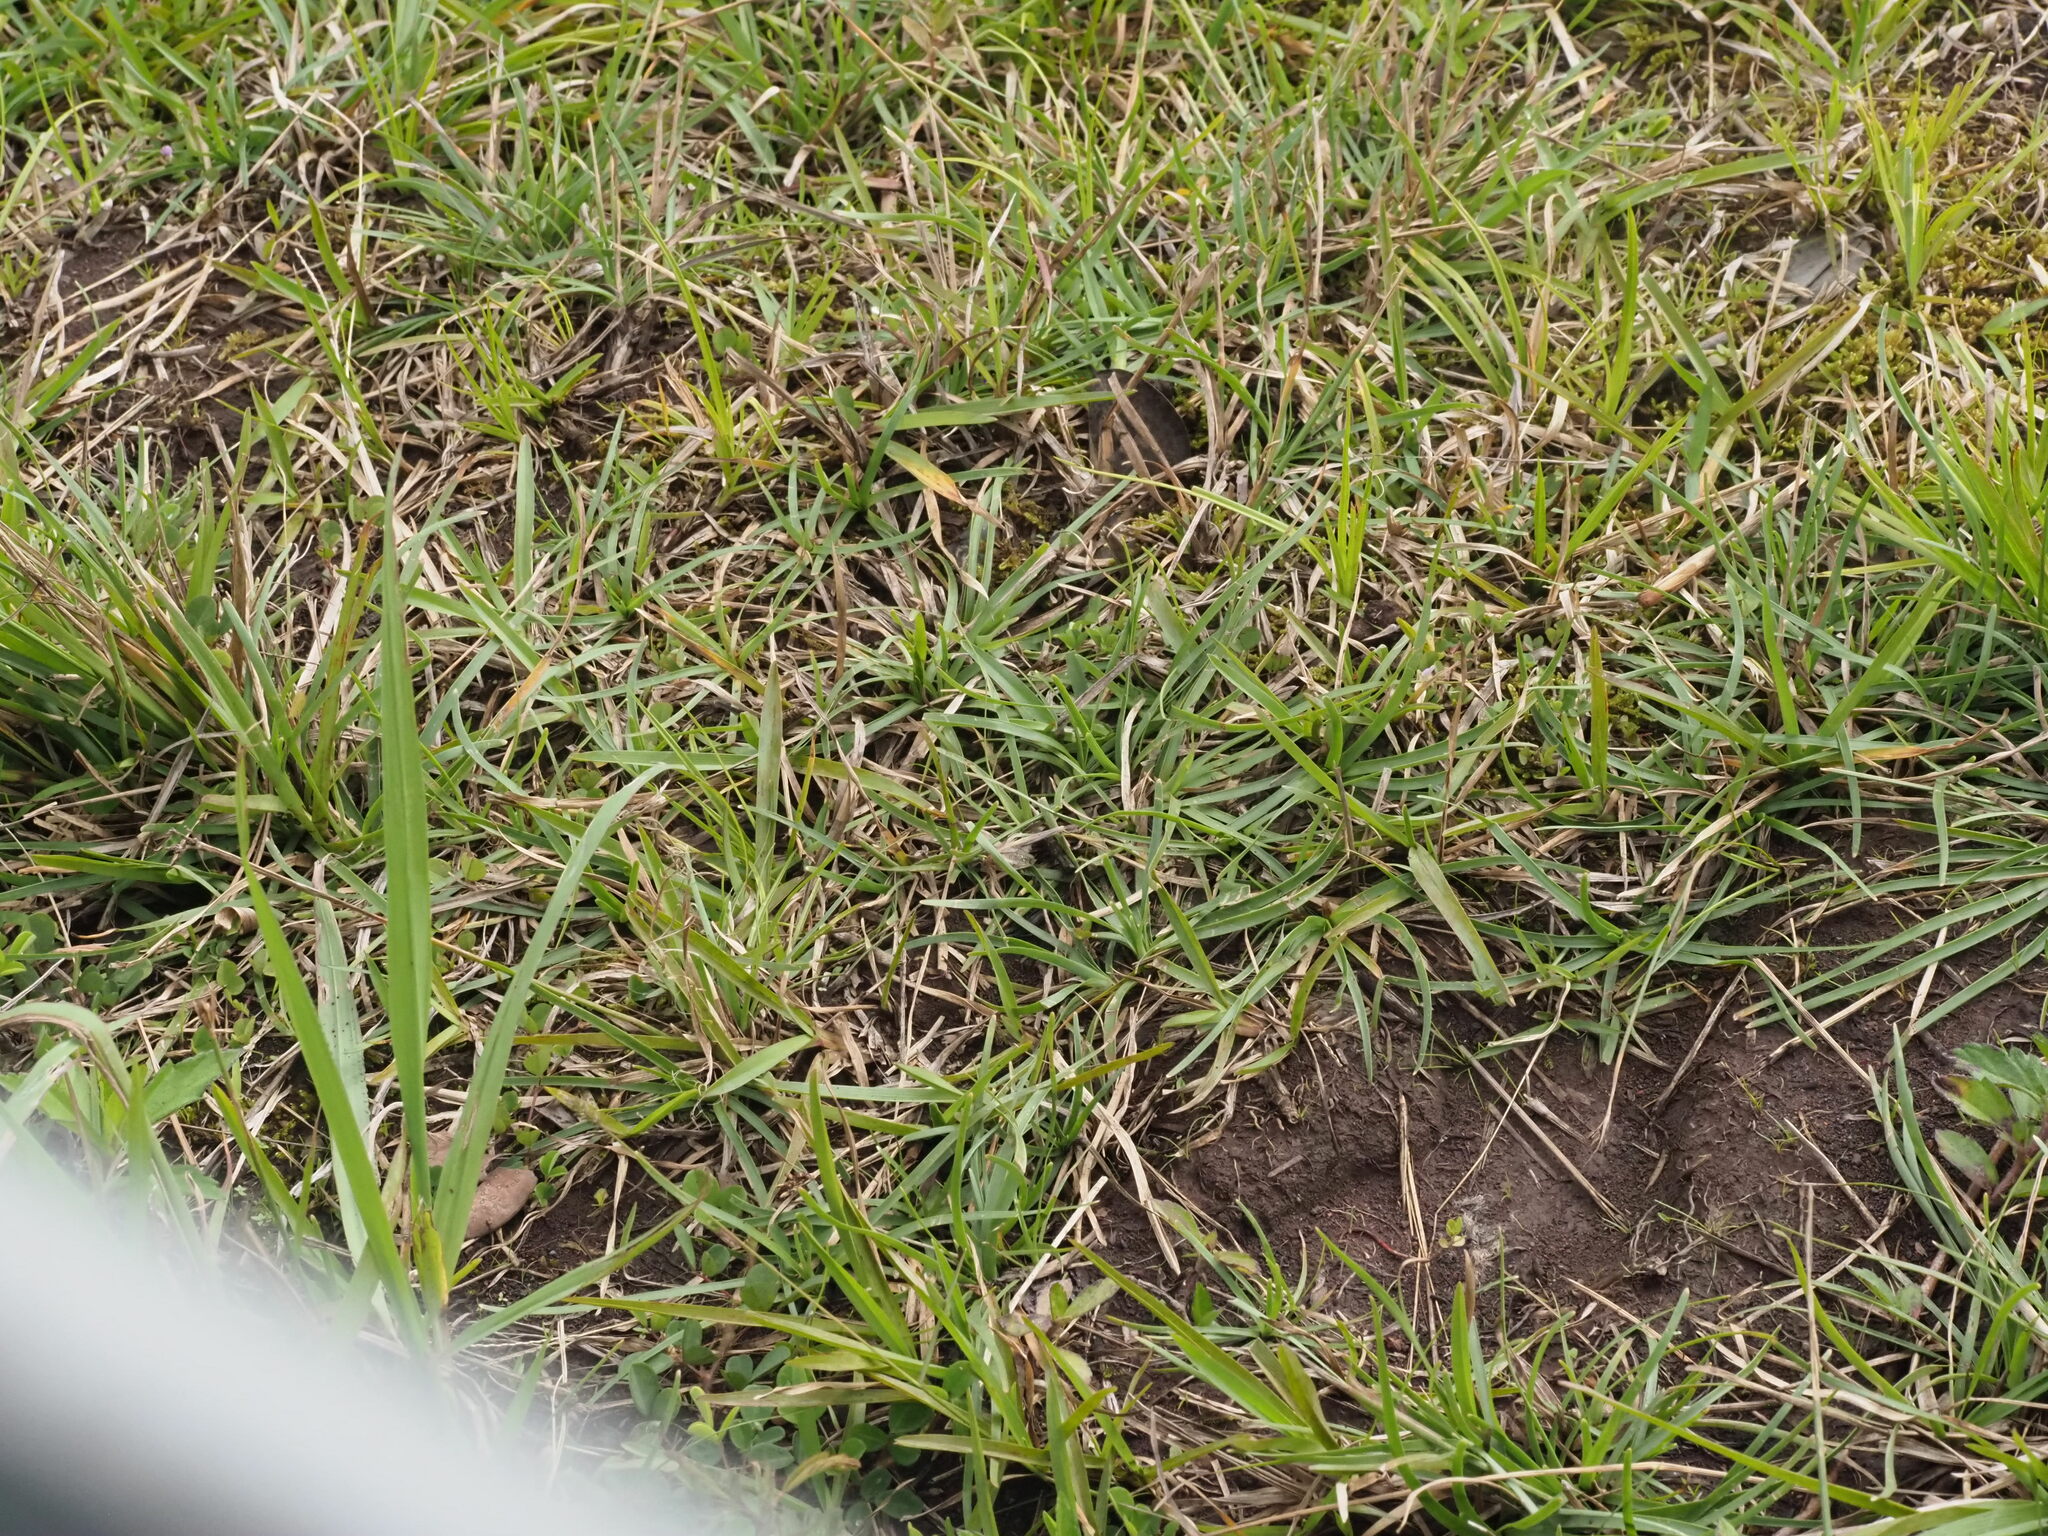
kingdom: Plantae
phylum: Tracheophyta
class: Liliopsida
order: Poales
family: Poaceae
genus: Axonopus
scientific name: Axonopus fissifolius
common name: Common carpetgrass
